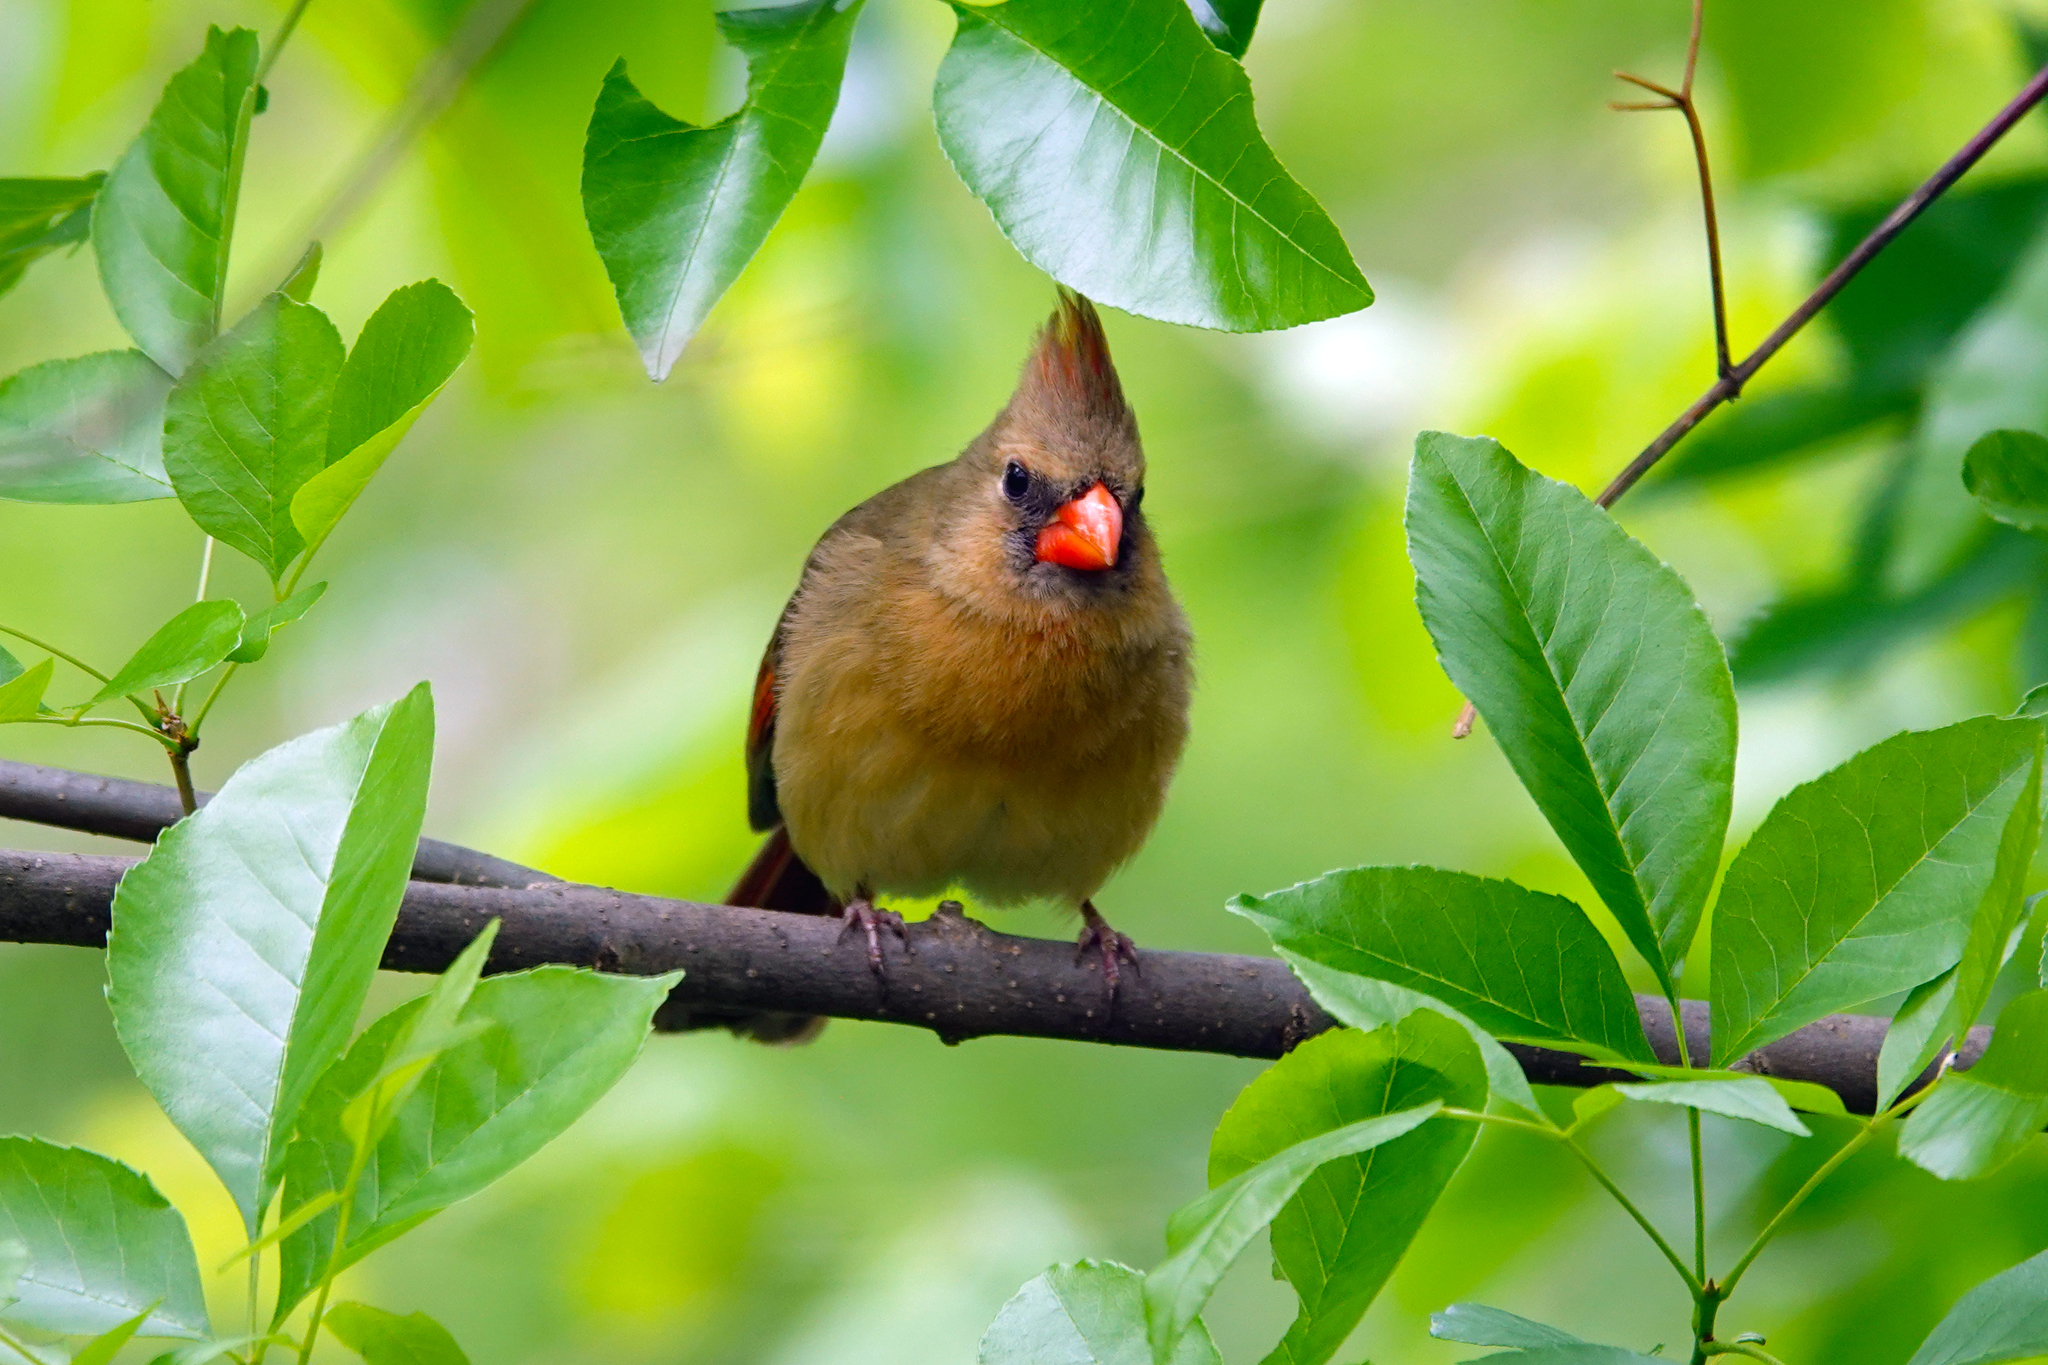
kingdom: Animalia
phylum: Chordata
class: Aves
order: Passeriformes
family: Cardinalidae
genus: Cardinalis
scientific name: Cardinalis cardinalis
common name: Northern cardinal
